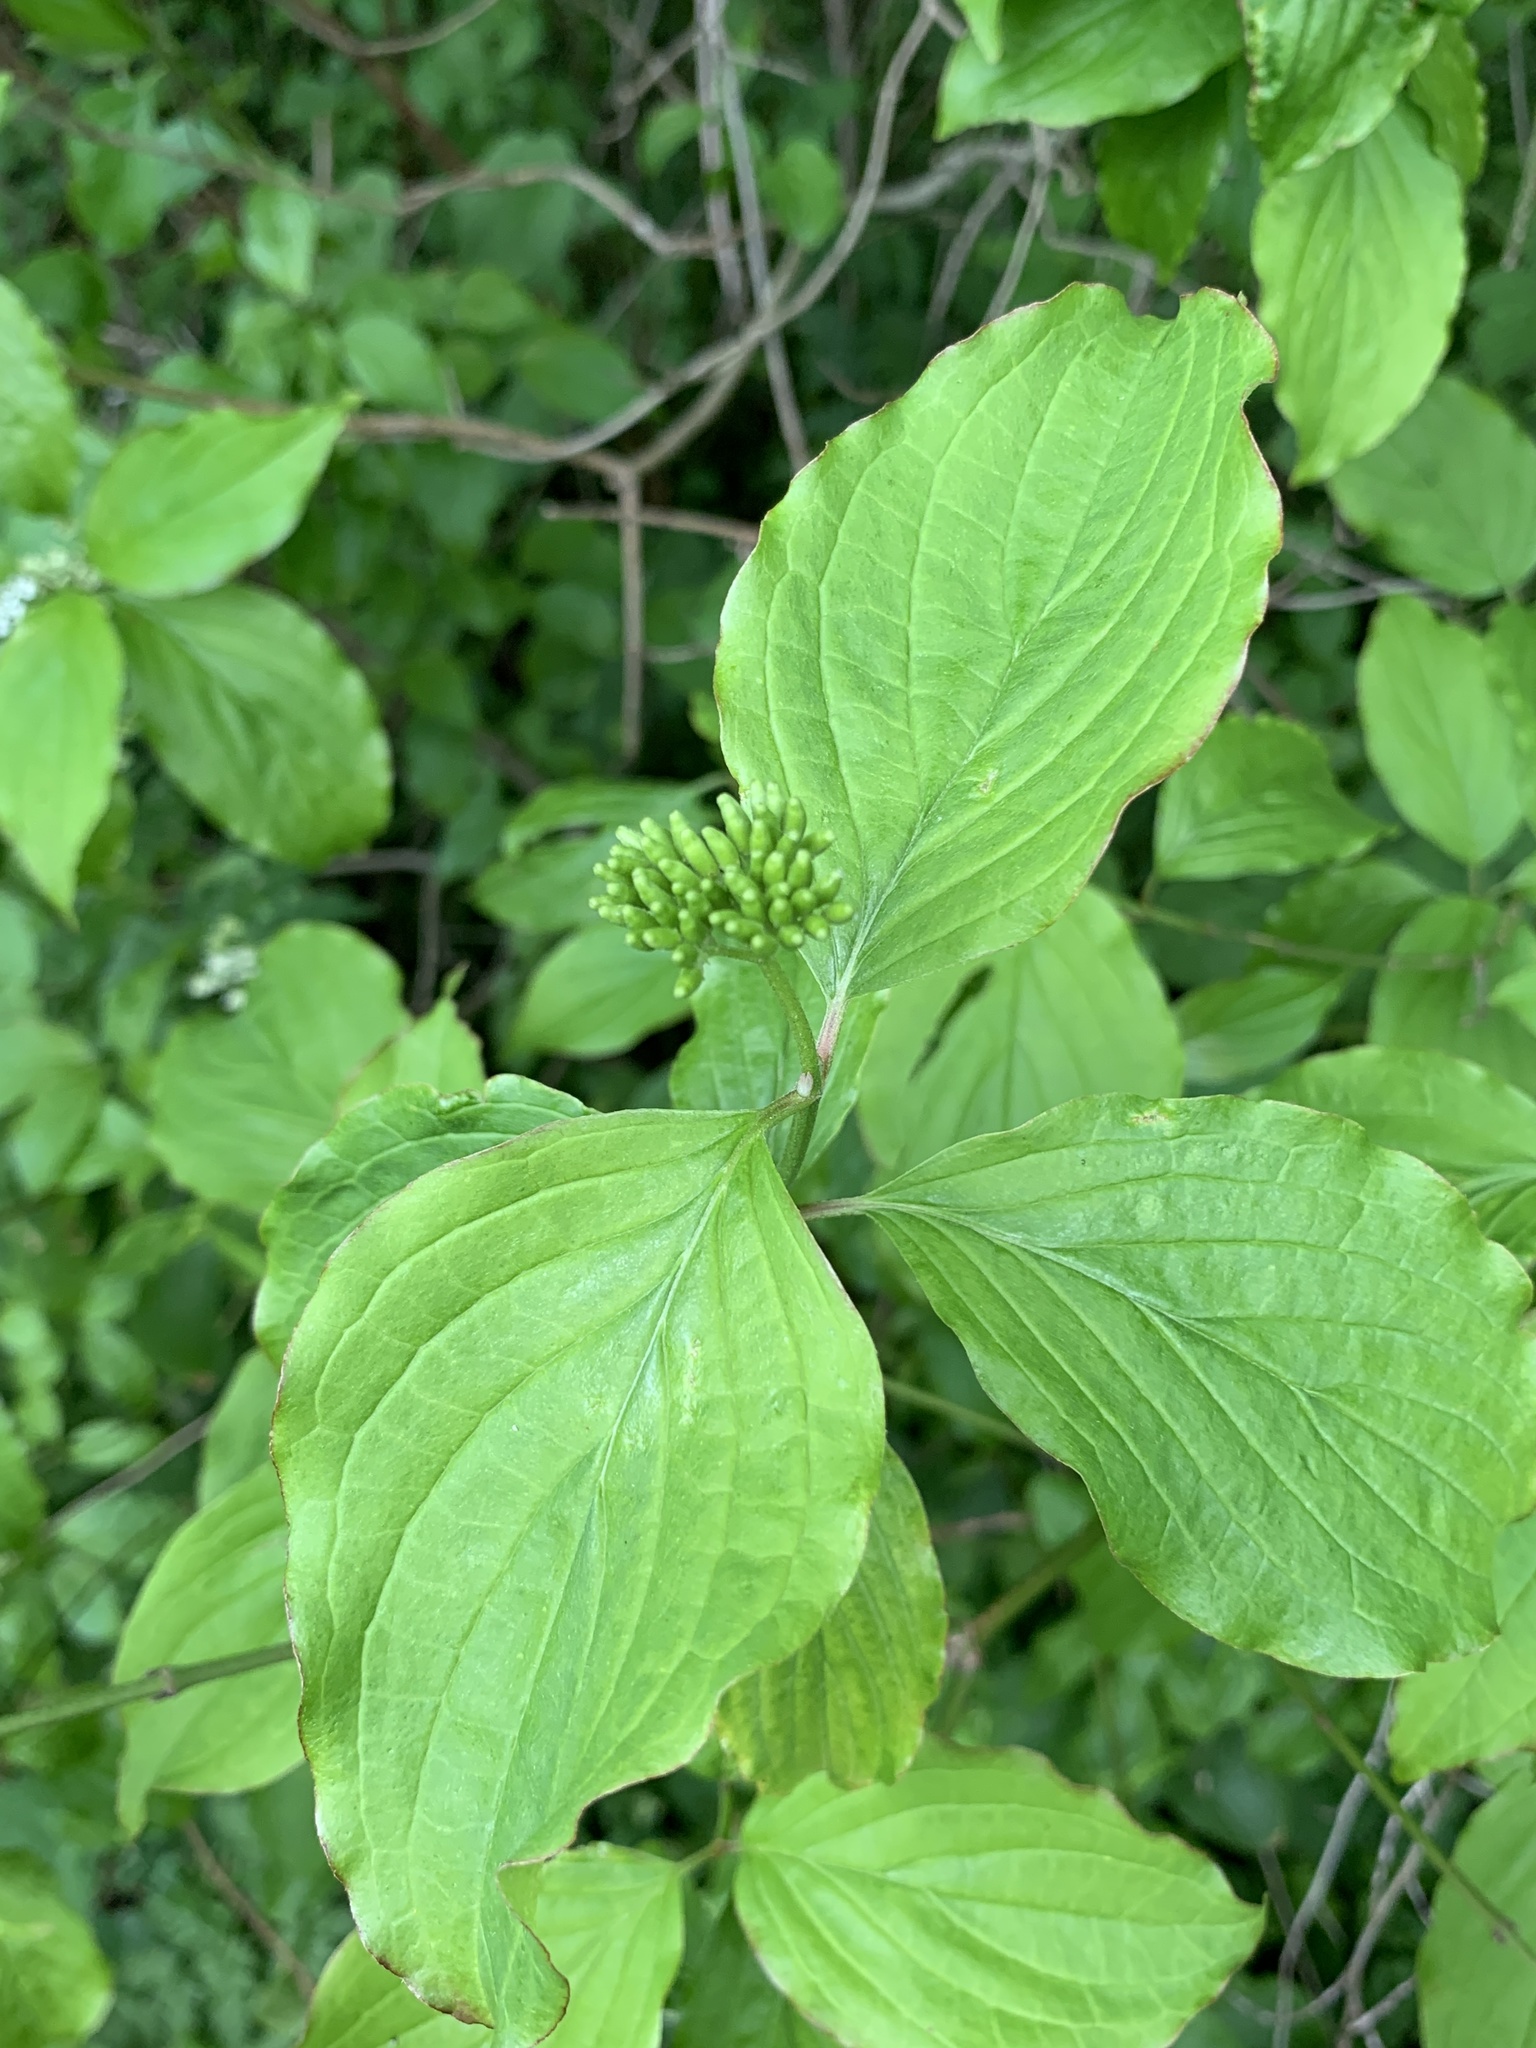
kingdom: Plantae
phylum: Tracheophyta
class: Magnoliopsida
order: Cornales
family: Cornaceae
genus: Cornus
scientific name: Cornus sanguinea
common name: Dogwood
